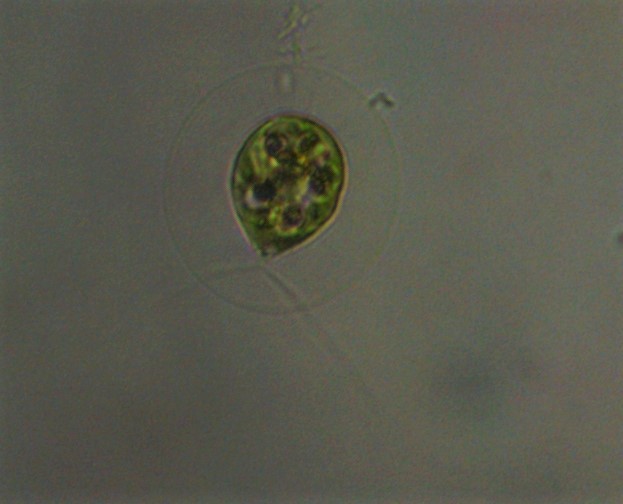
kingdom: Plantae
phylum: Chlorophyta
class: Chlorophyceae
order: Volvocales
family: Haematococcaceae
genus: Haematococcus
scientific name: Haematococcus lacustris
